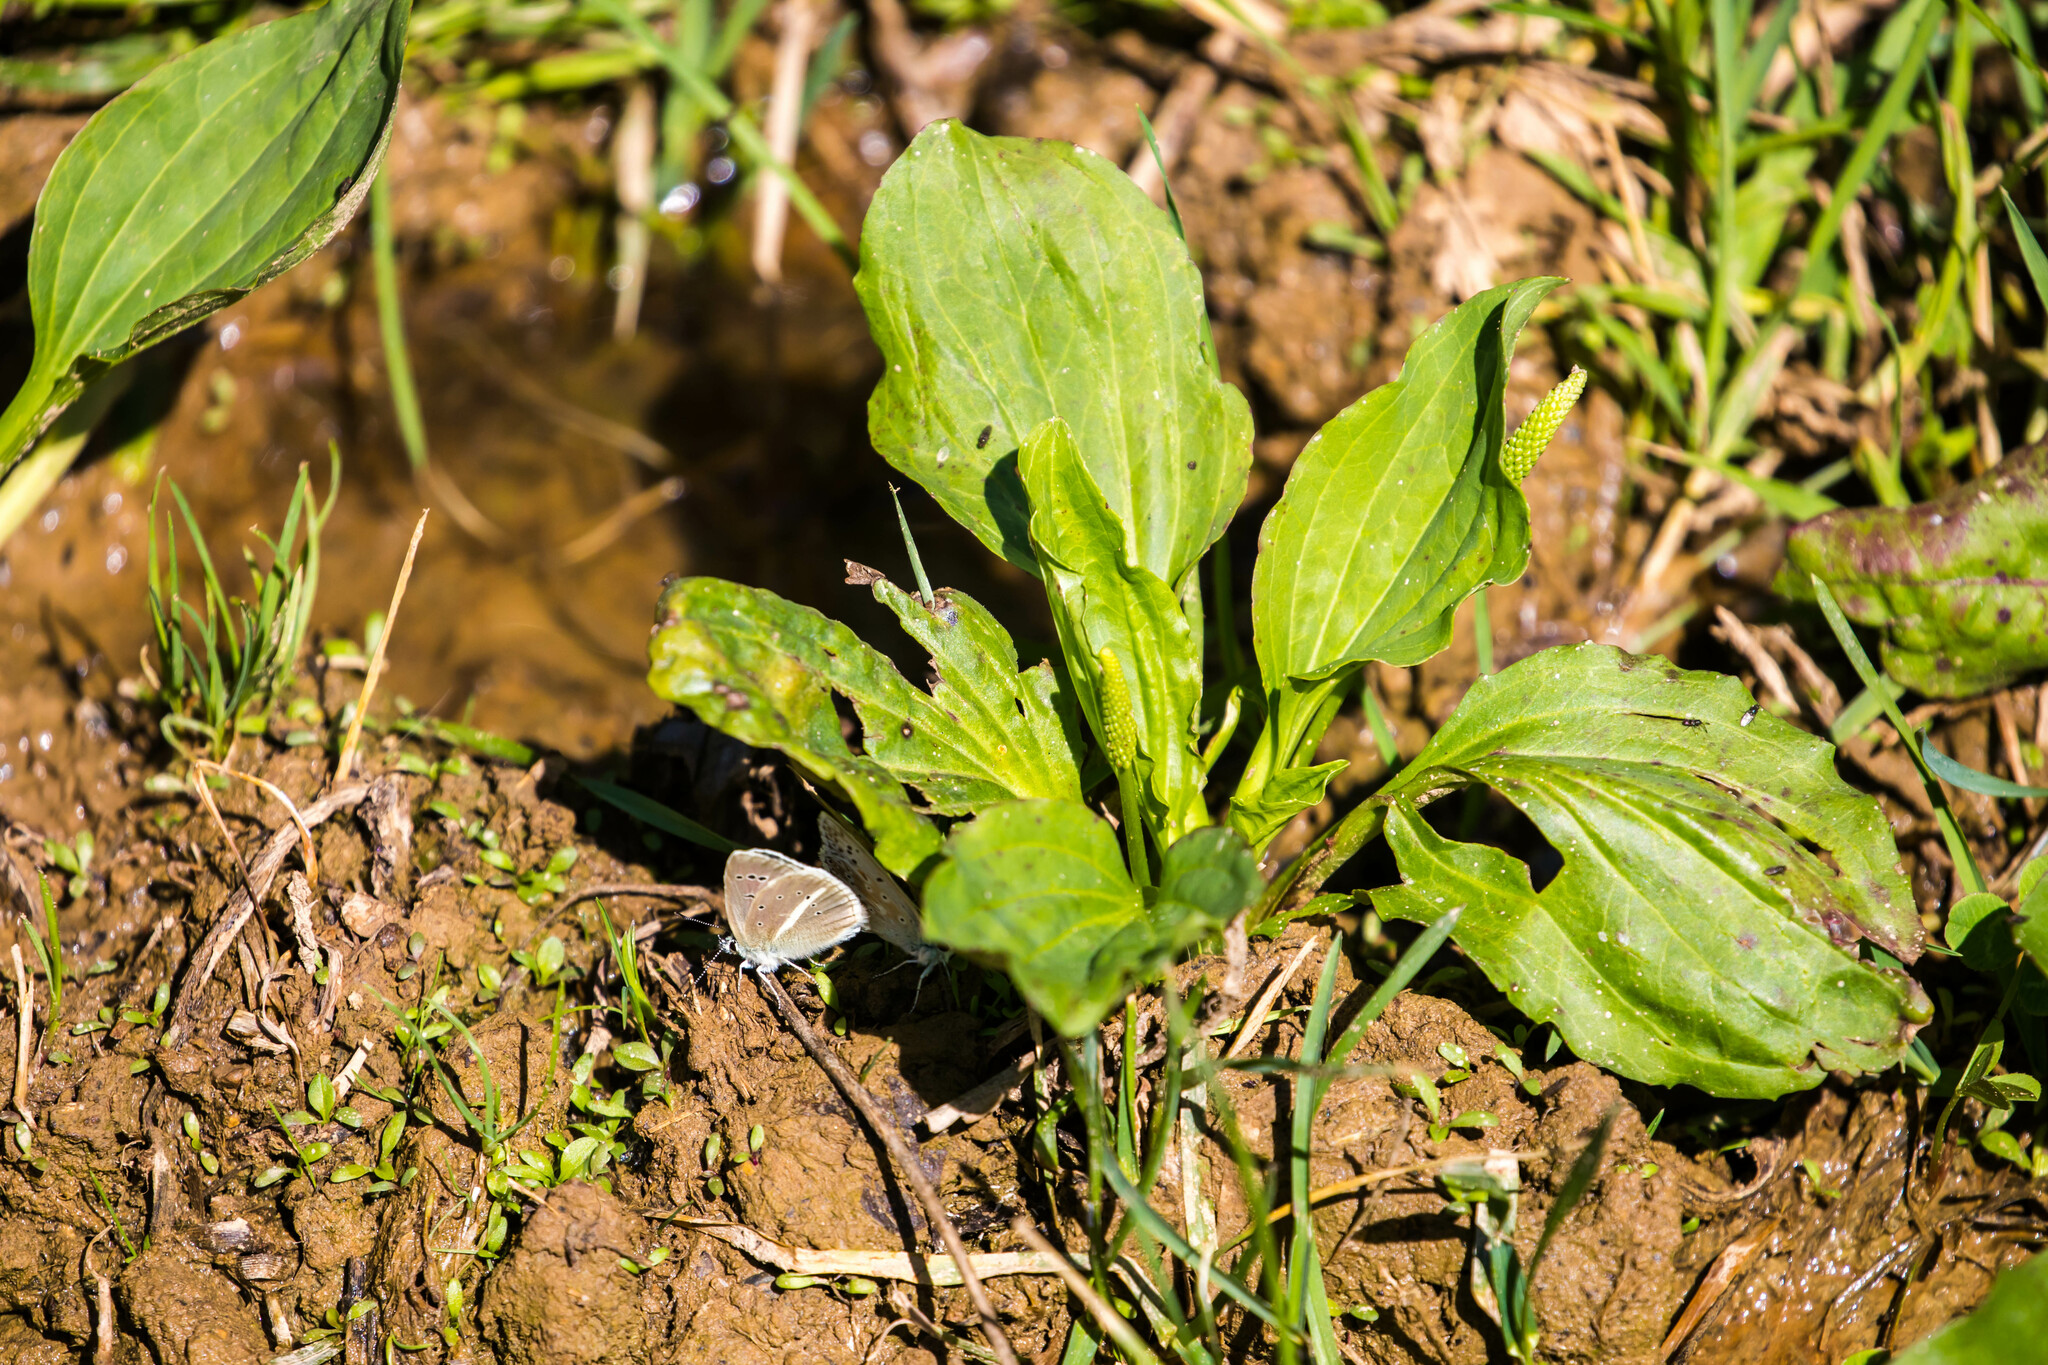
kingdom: Animalia
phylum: Arthropoda
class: Insecta
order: Lepidoptera
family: Lycaenidae
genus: Agrodiaetus
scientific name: Agrodiaetus damon
